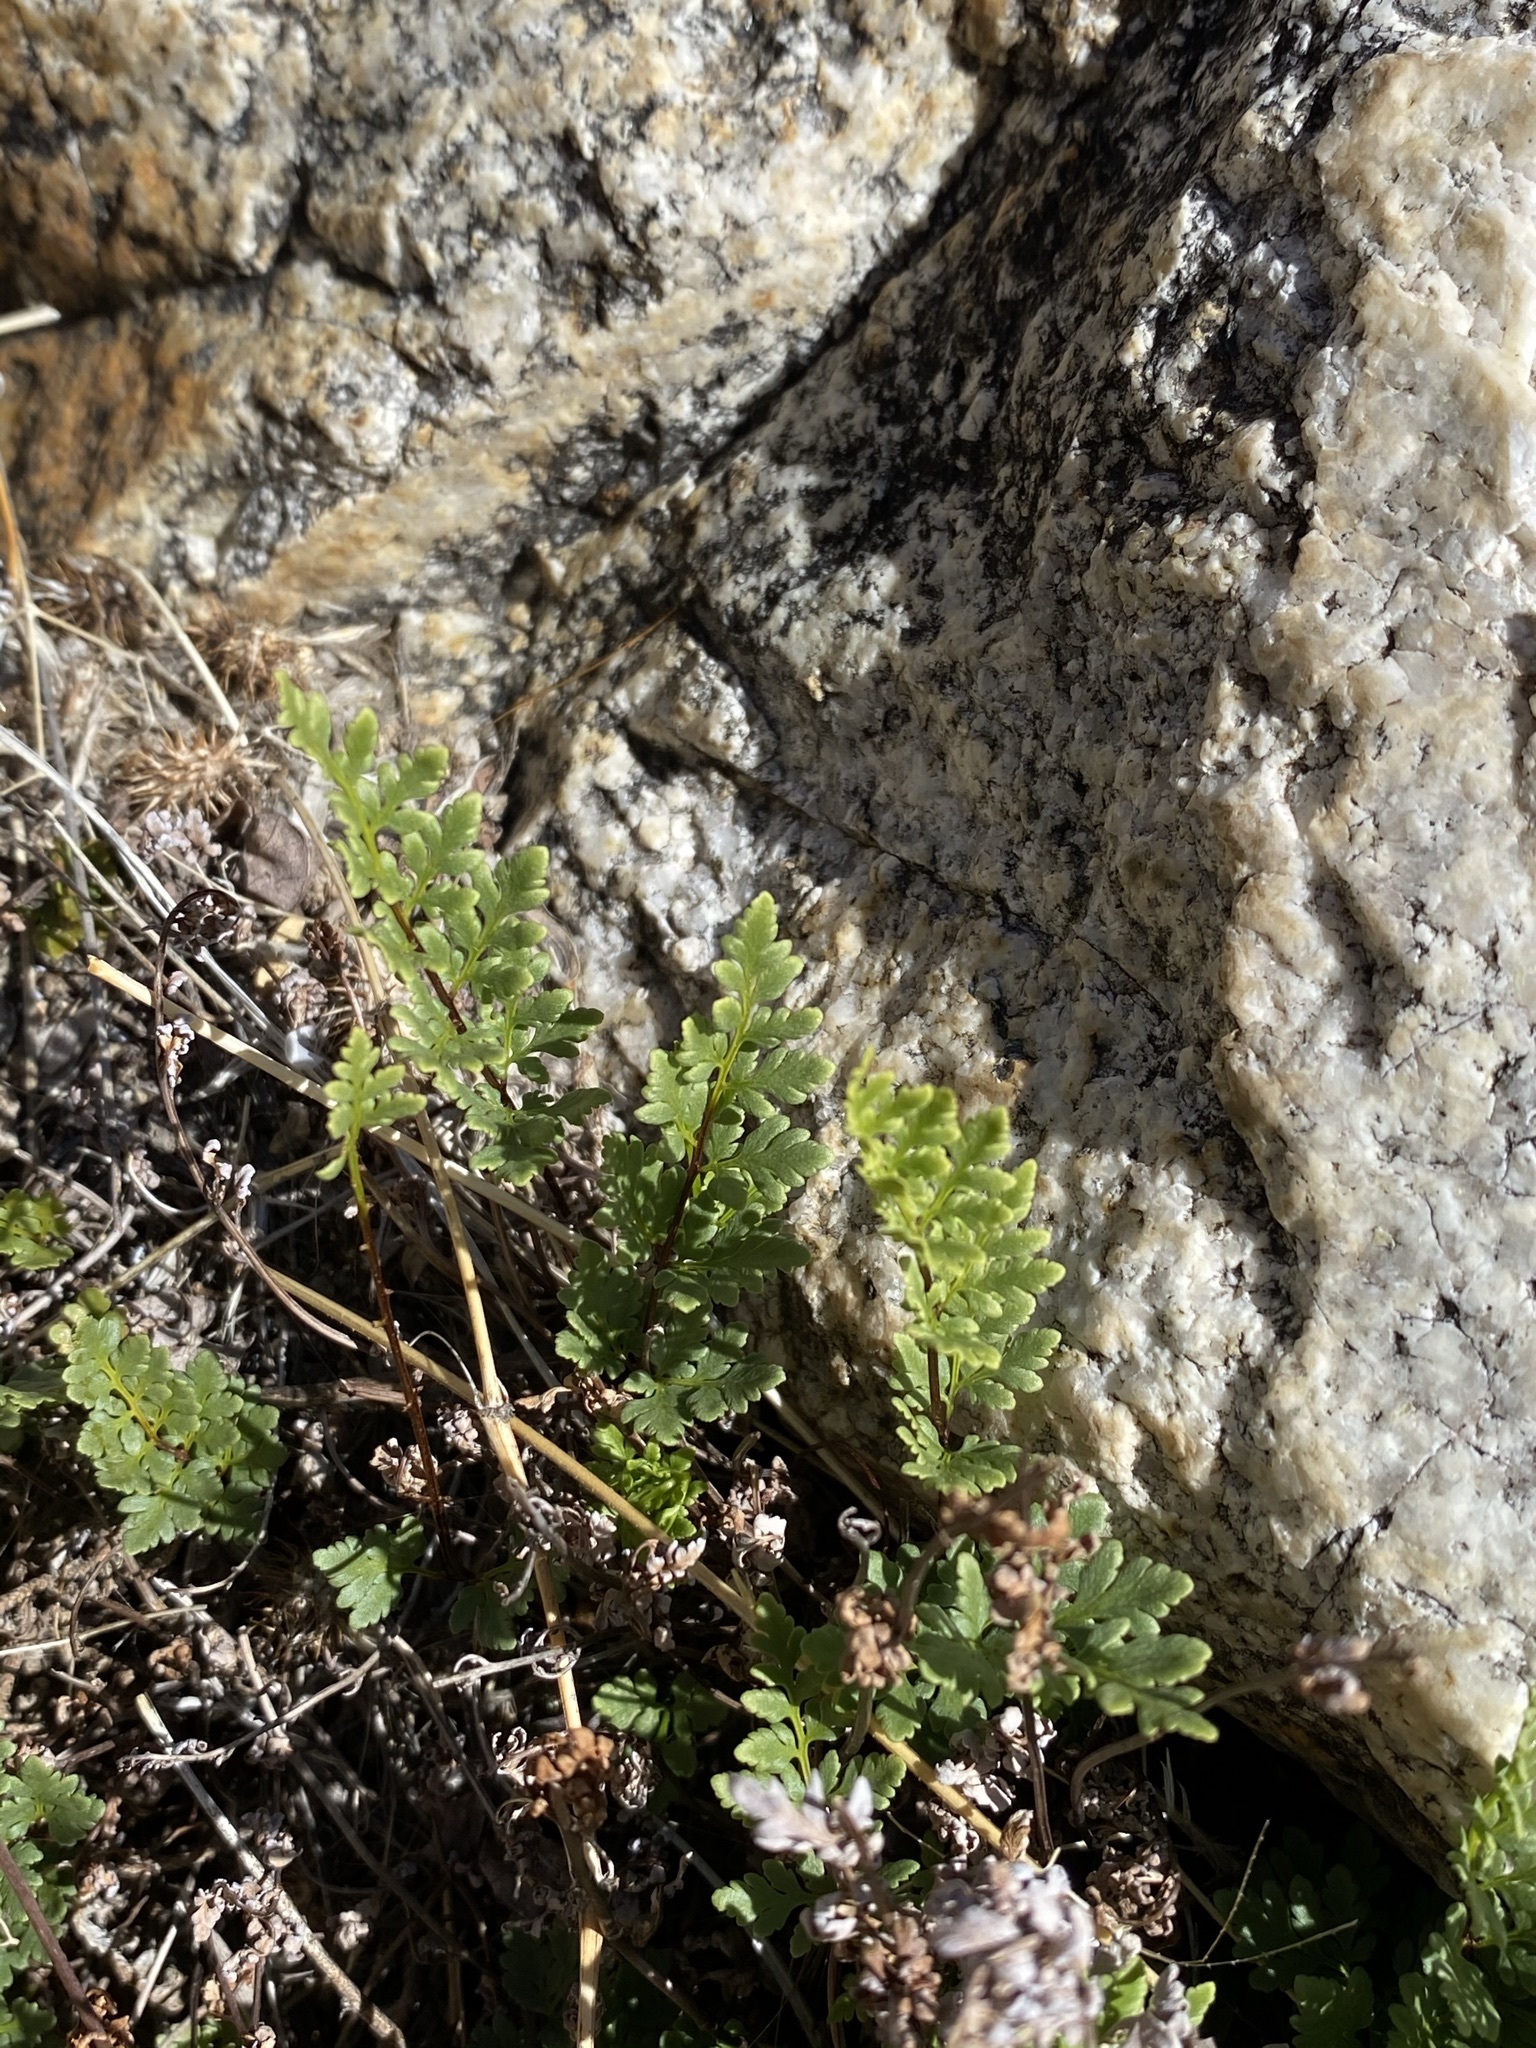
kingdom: Plantae
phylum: Tracheophyta
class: Polypodiopsida
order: Polypodiales
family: Pteridaceae
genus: Myriopteris
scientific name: Myriopteris wrightii
